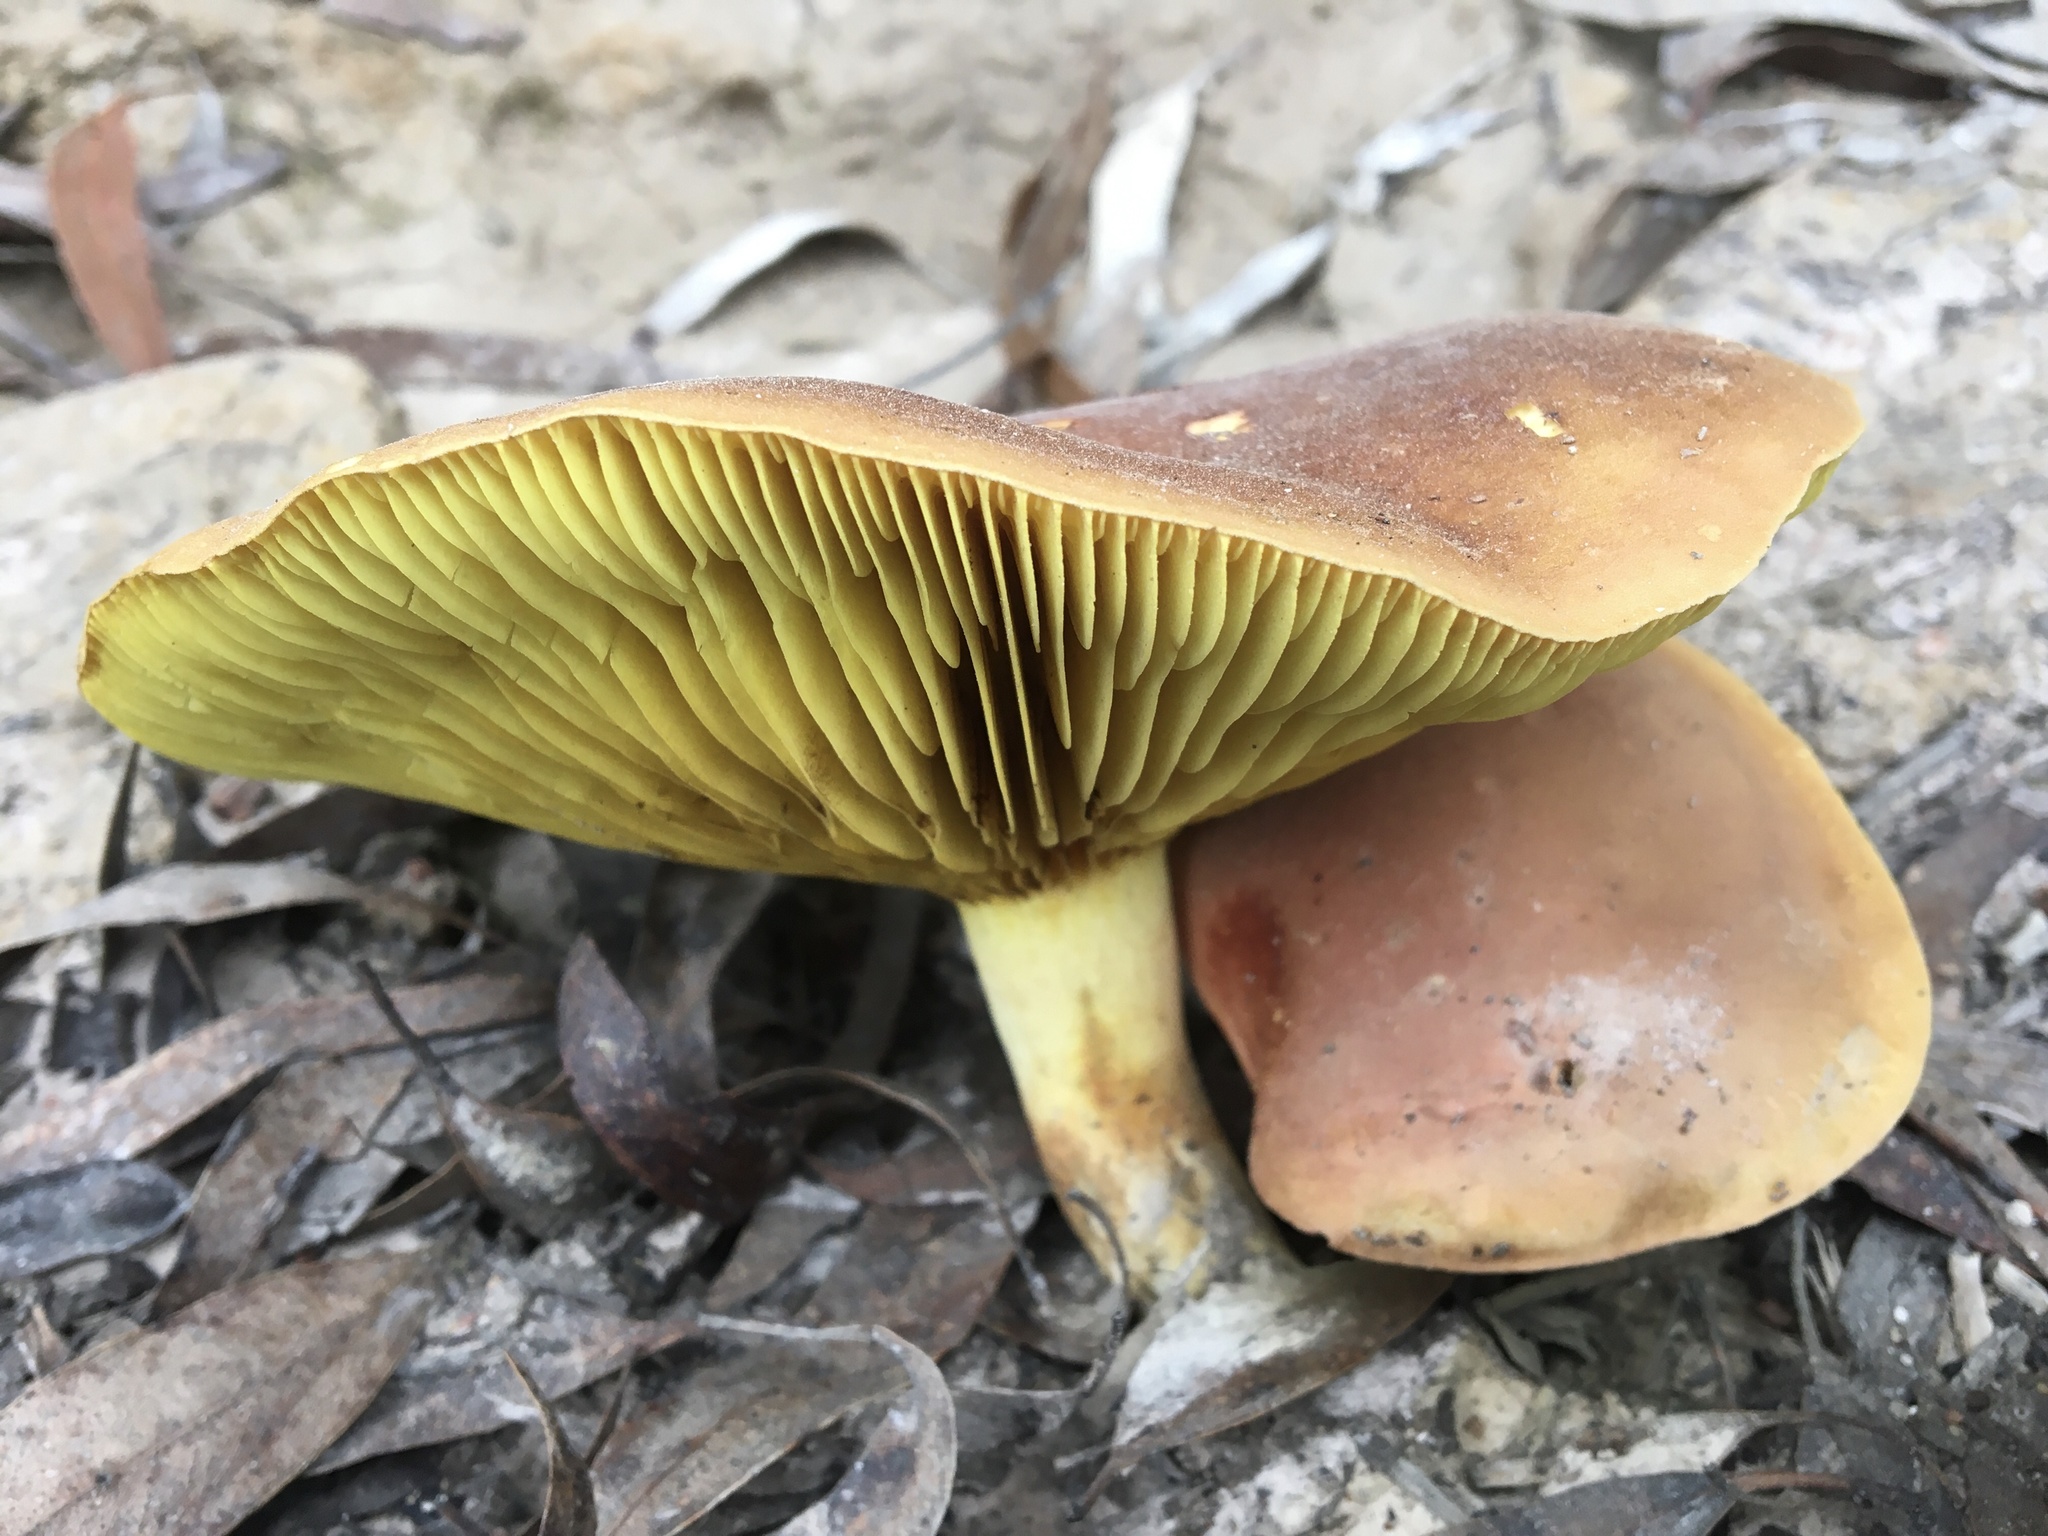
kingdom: Fungi
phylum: Basidiomycota
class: Agaricomycetes
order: Boletales
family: Boletaceae
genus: Phylloporus
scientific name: Phylloporus rhodoxanthus
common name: Golden gilled bolete
